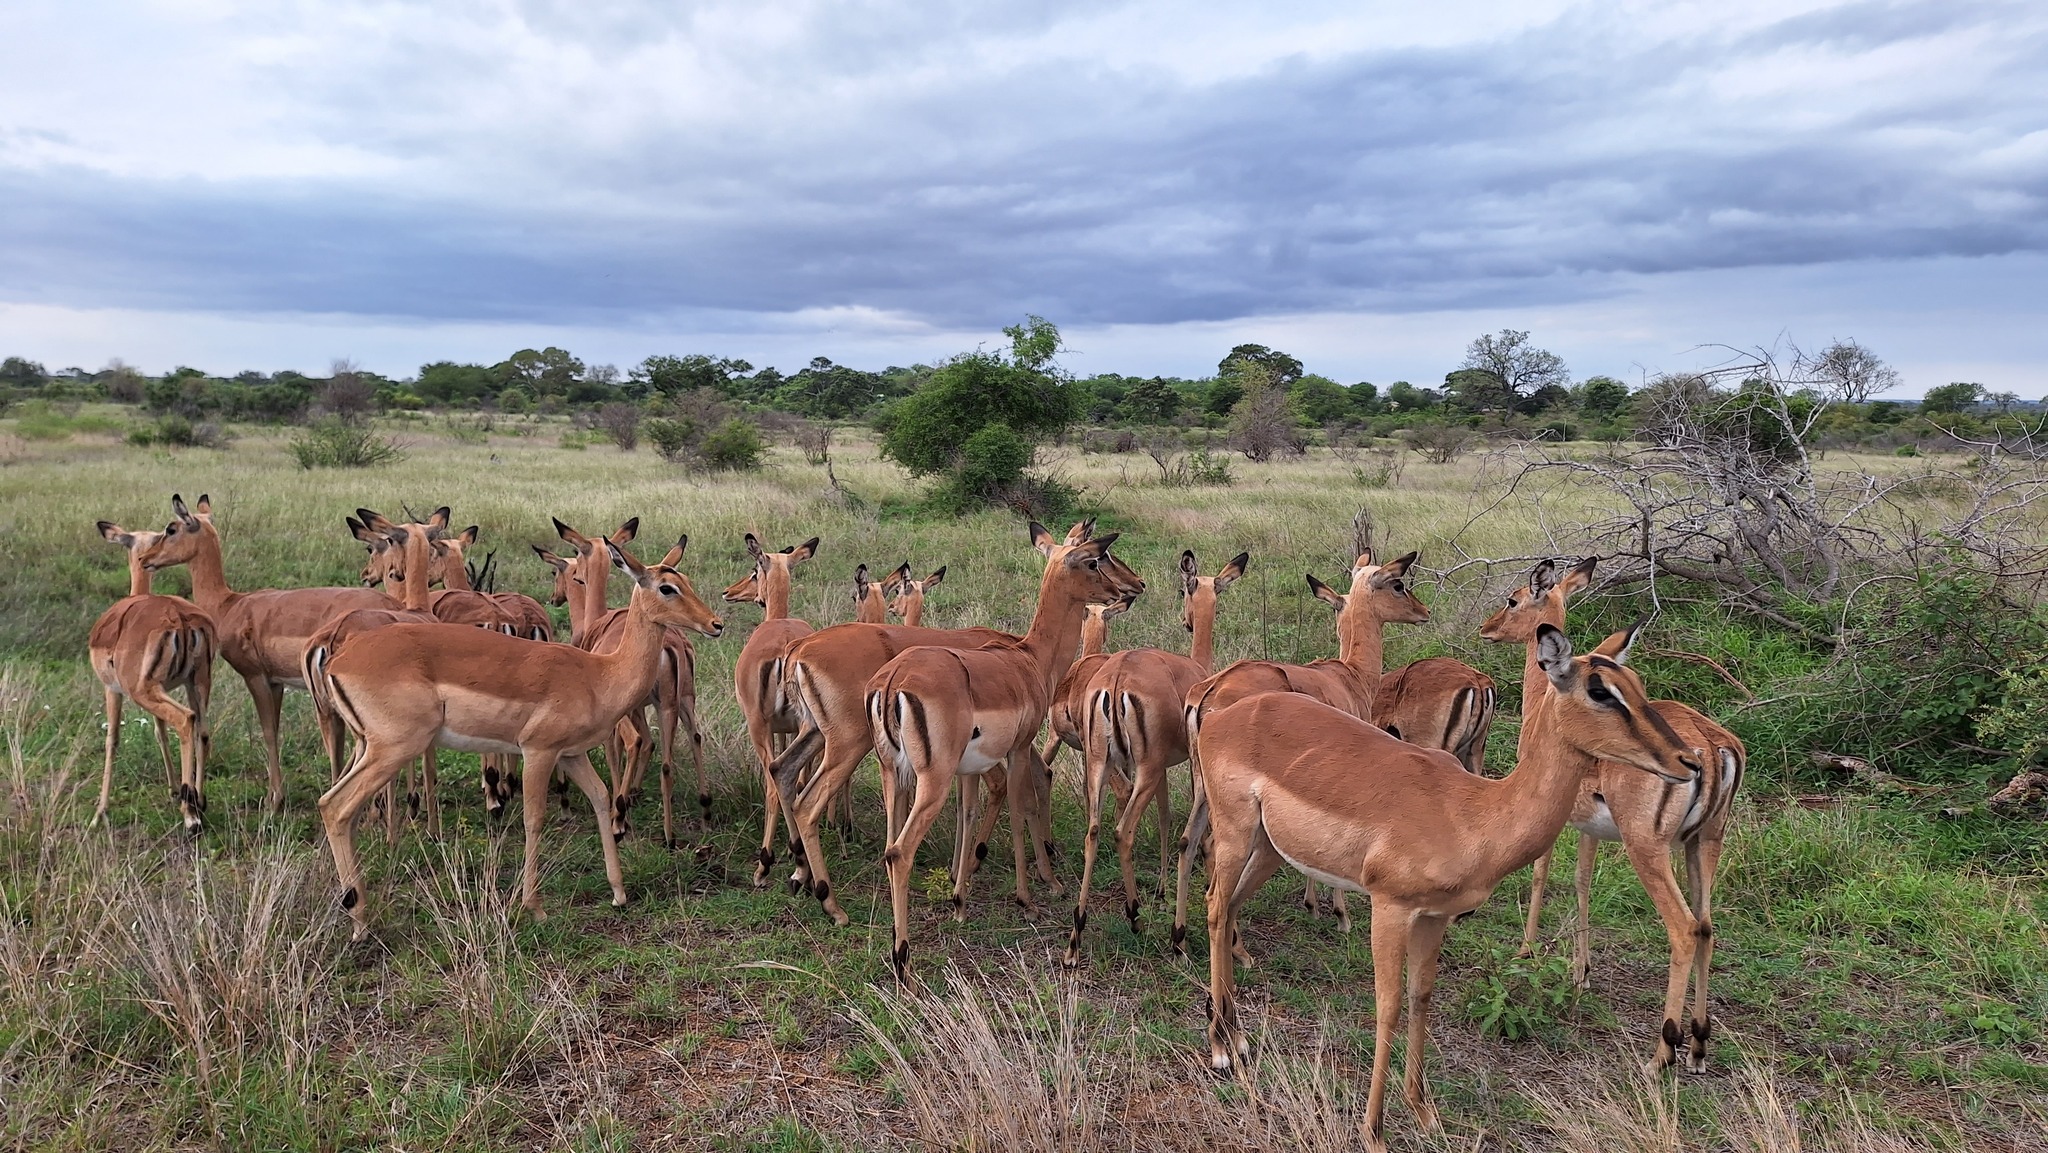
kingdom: Animalia
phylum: Chordata
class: Mammalia
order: Artiodactyla
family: Bovidae
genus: Aepyceros
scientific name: Aepyceros melampus
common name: Impala
